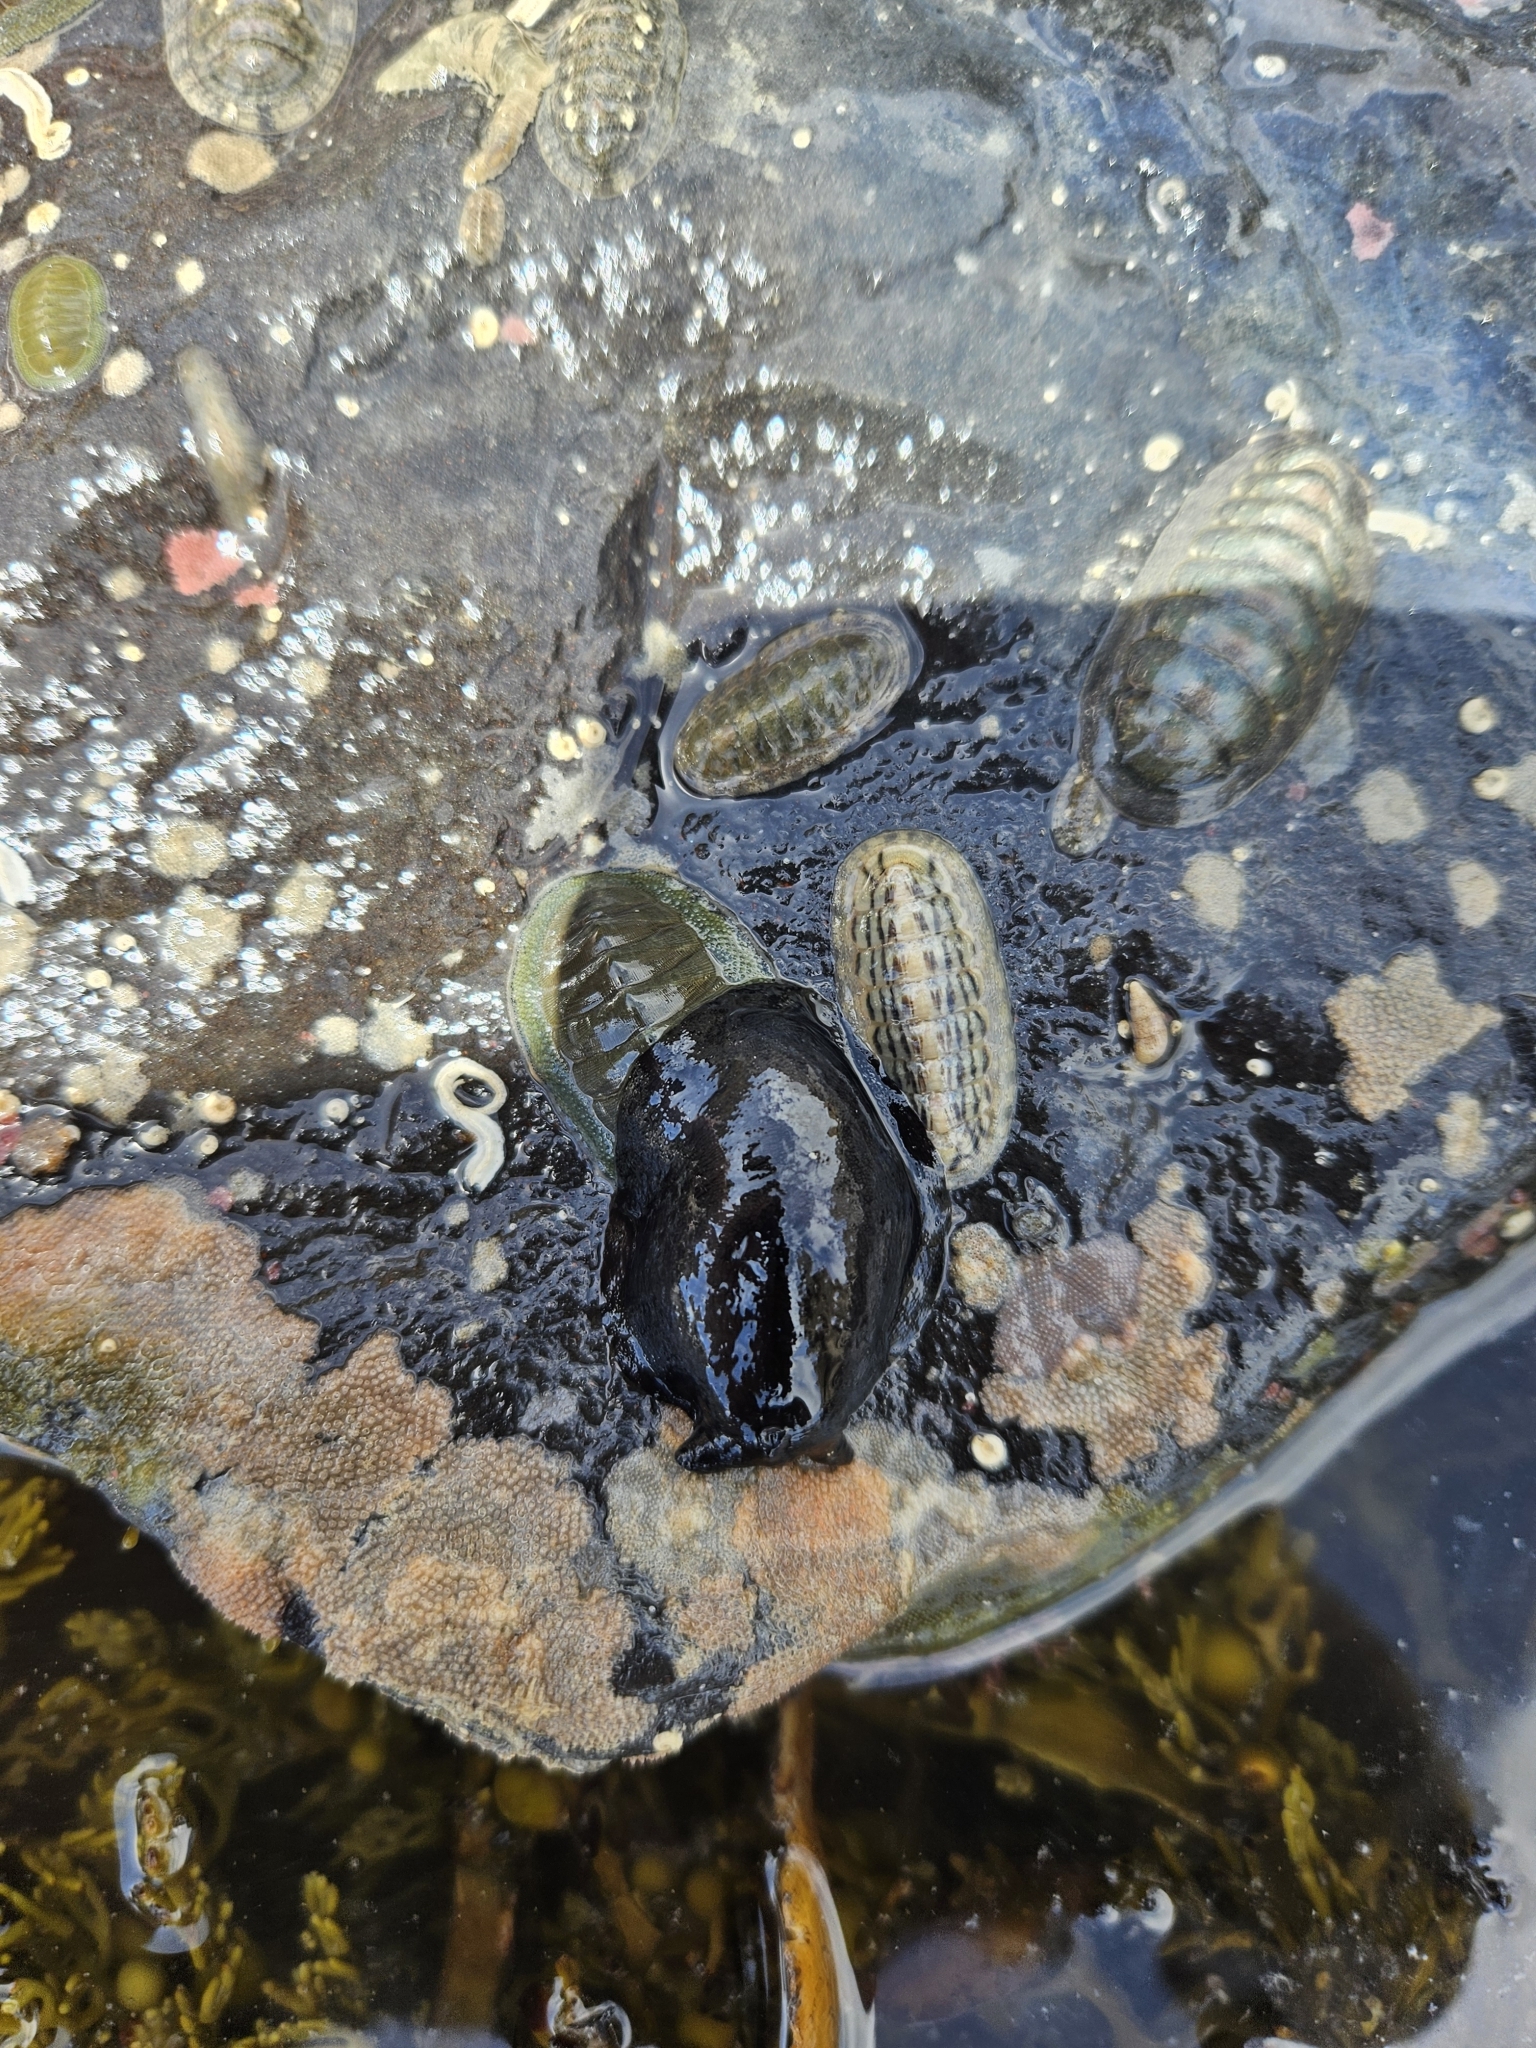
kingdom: Animalia
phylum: Mollusca
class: Gastropoda
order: Lepetellida
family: Fissurellidae
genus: Scutus
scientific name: Scutus breviculus
